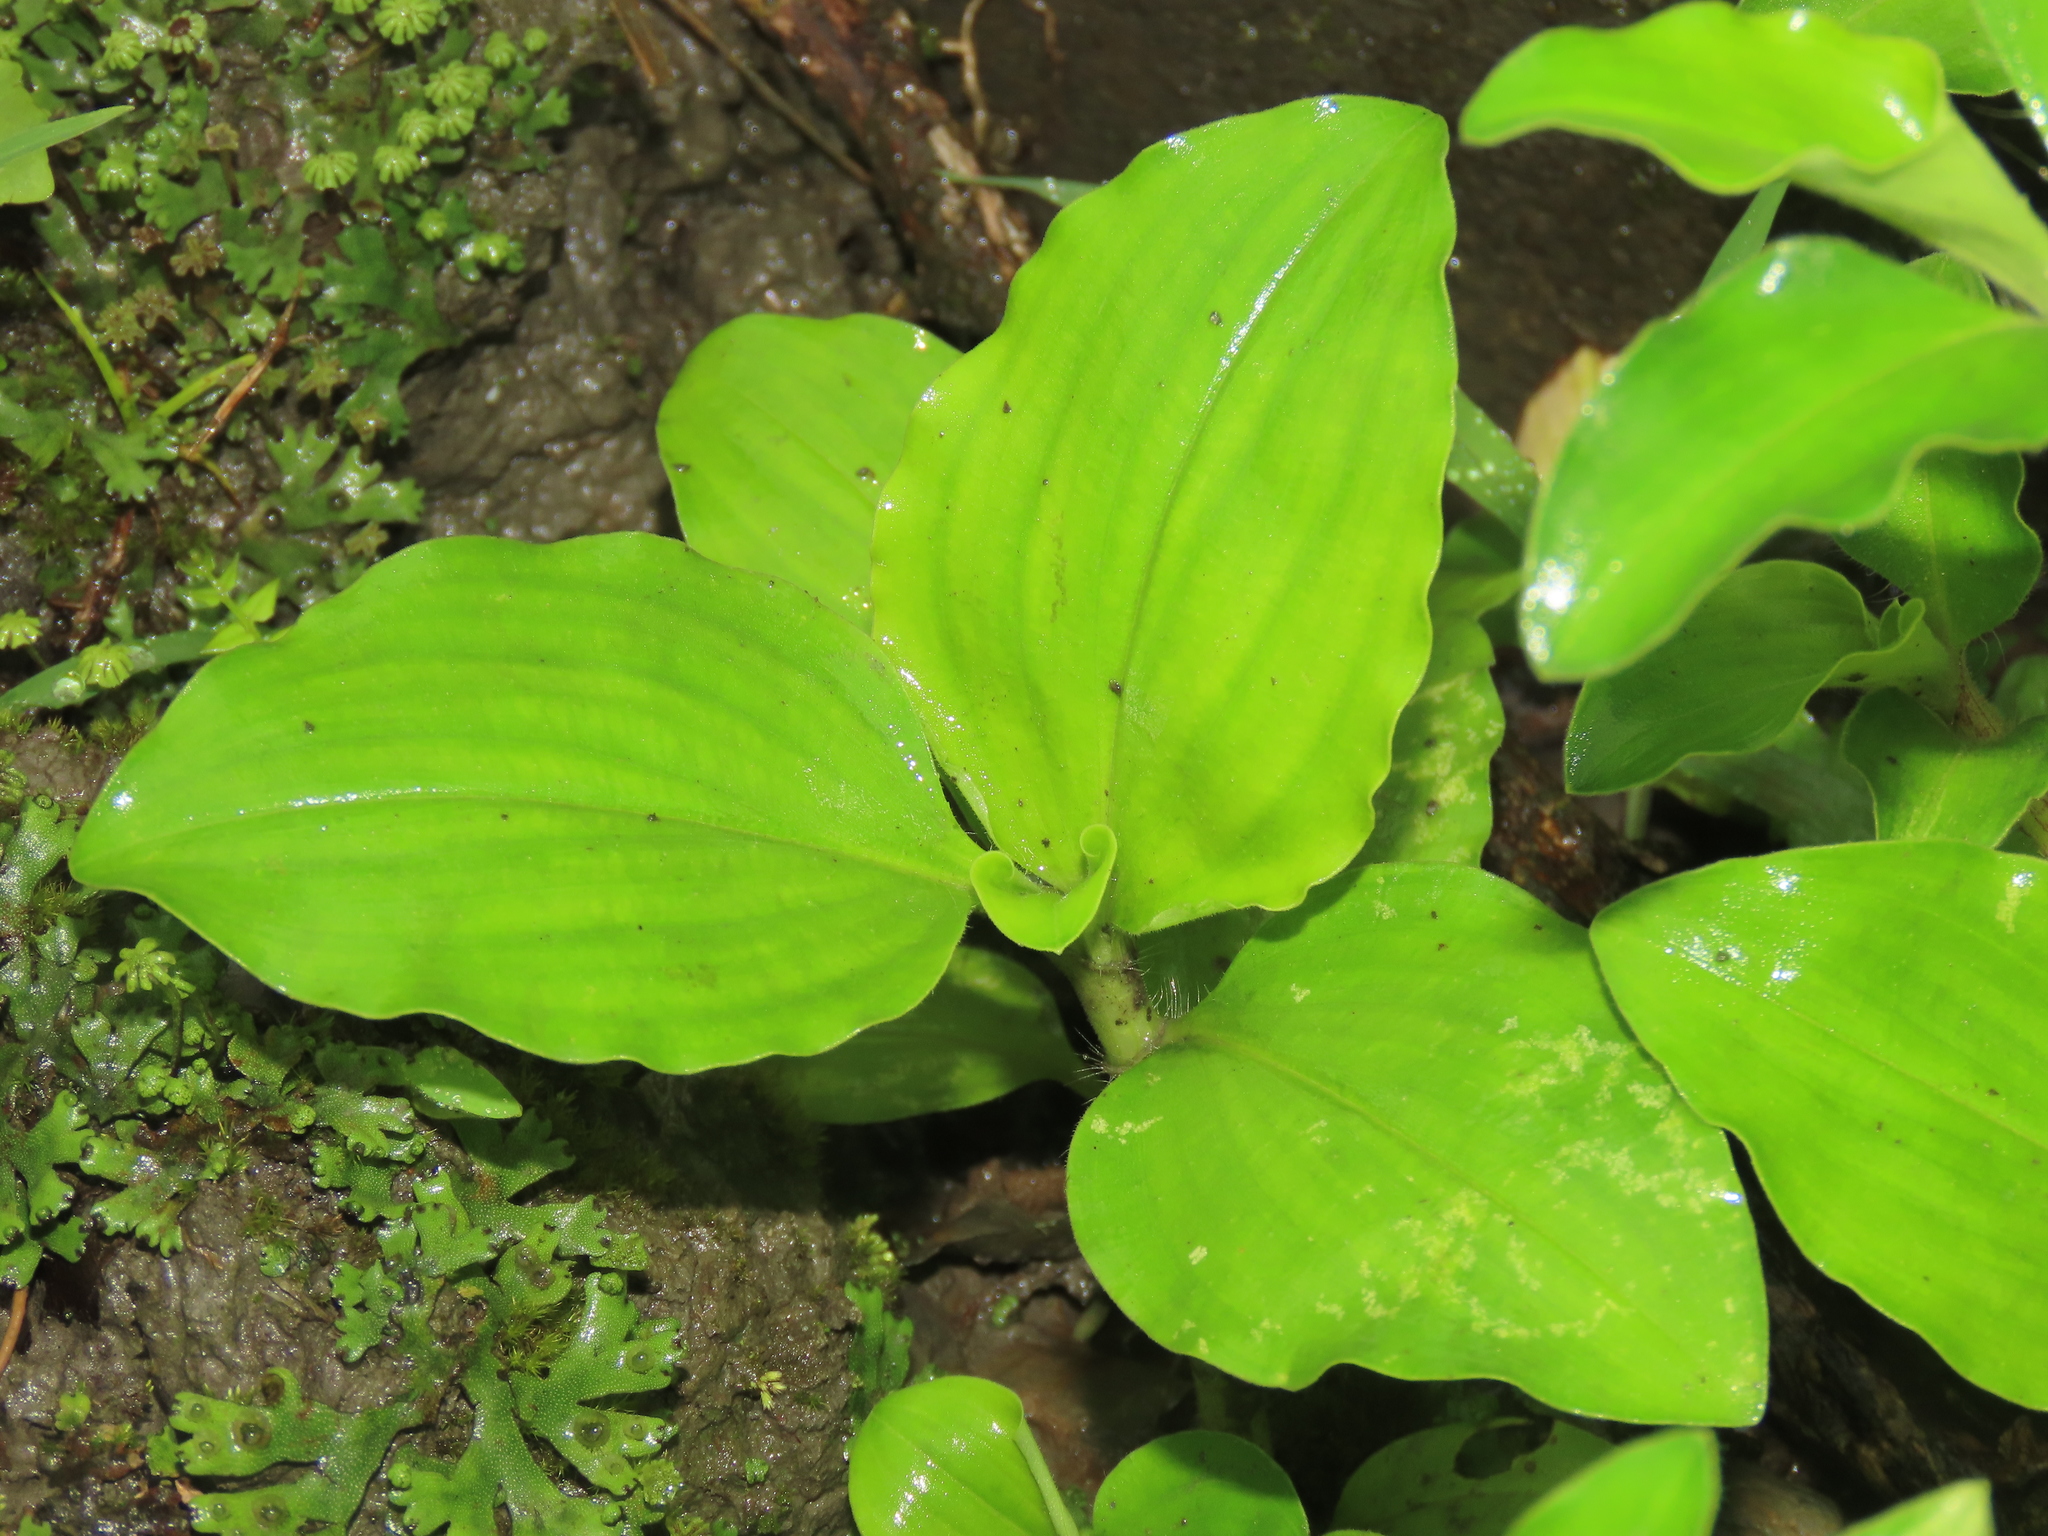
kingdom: Plantae
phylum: Tracheophyta
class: Liliopsida
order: Commelinales
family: Commelinaceae
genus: Commelina
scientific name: Commelina benghalensis
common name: Jio
